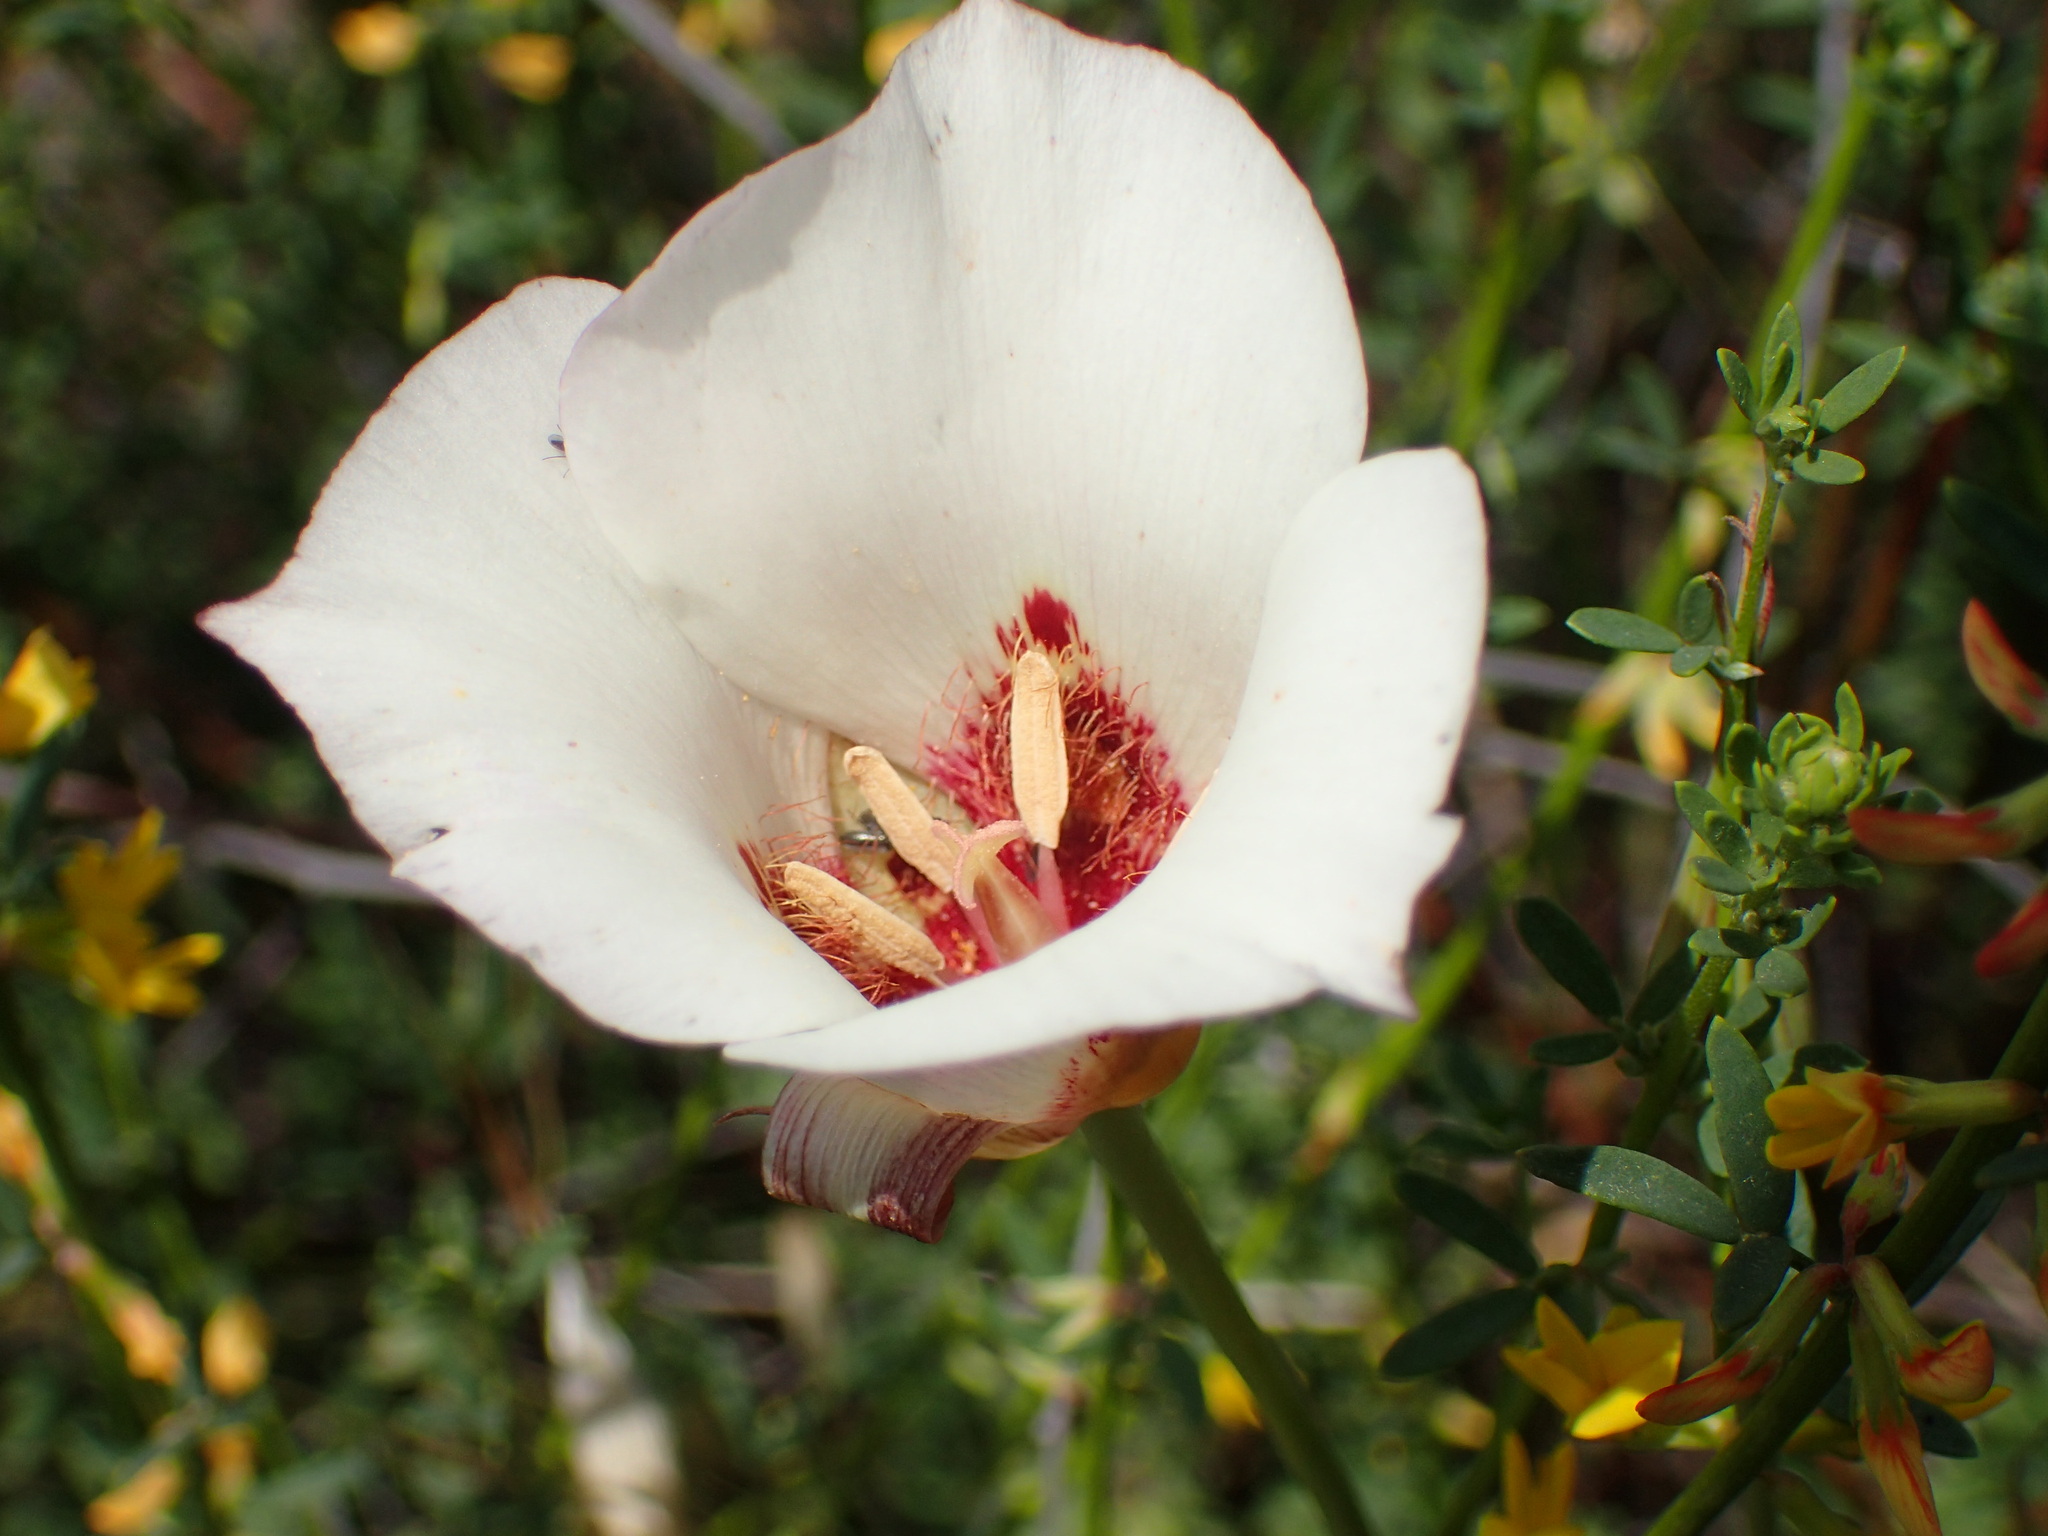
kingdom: Plantae
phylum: Tracheophyta
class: Liliopsida
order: Liliales
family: Liliaceae
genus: Calochortus
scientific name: Calochortus venustus
